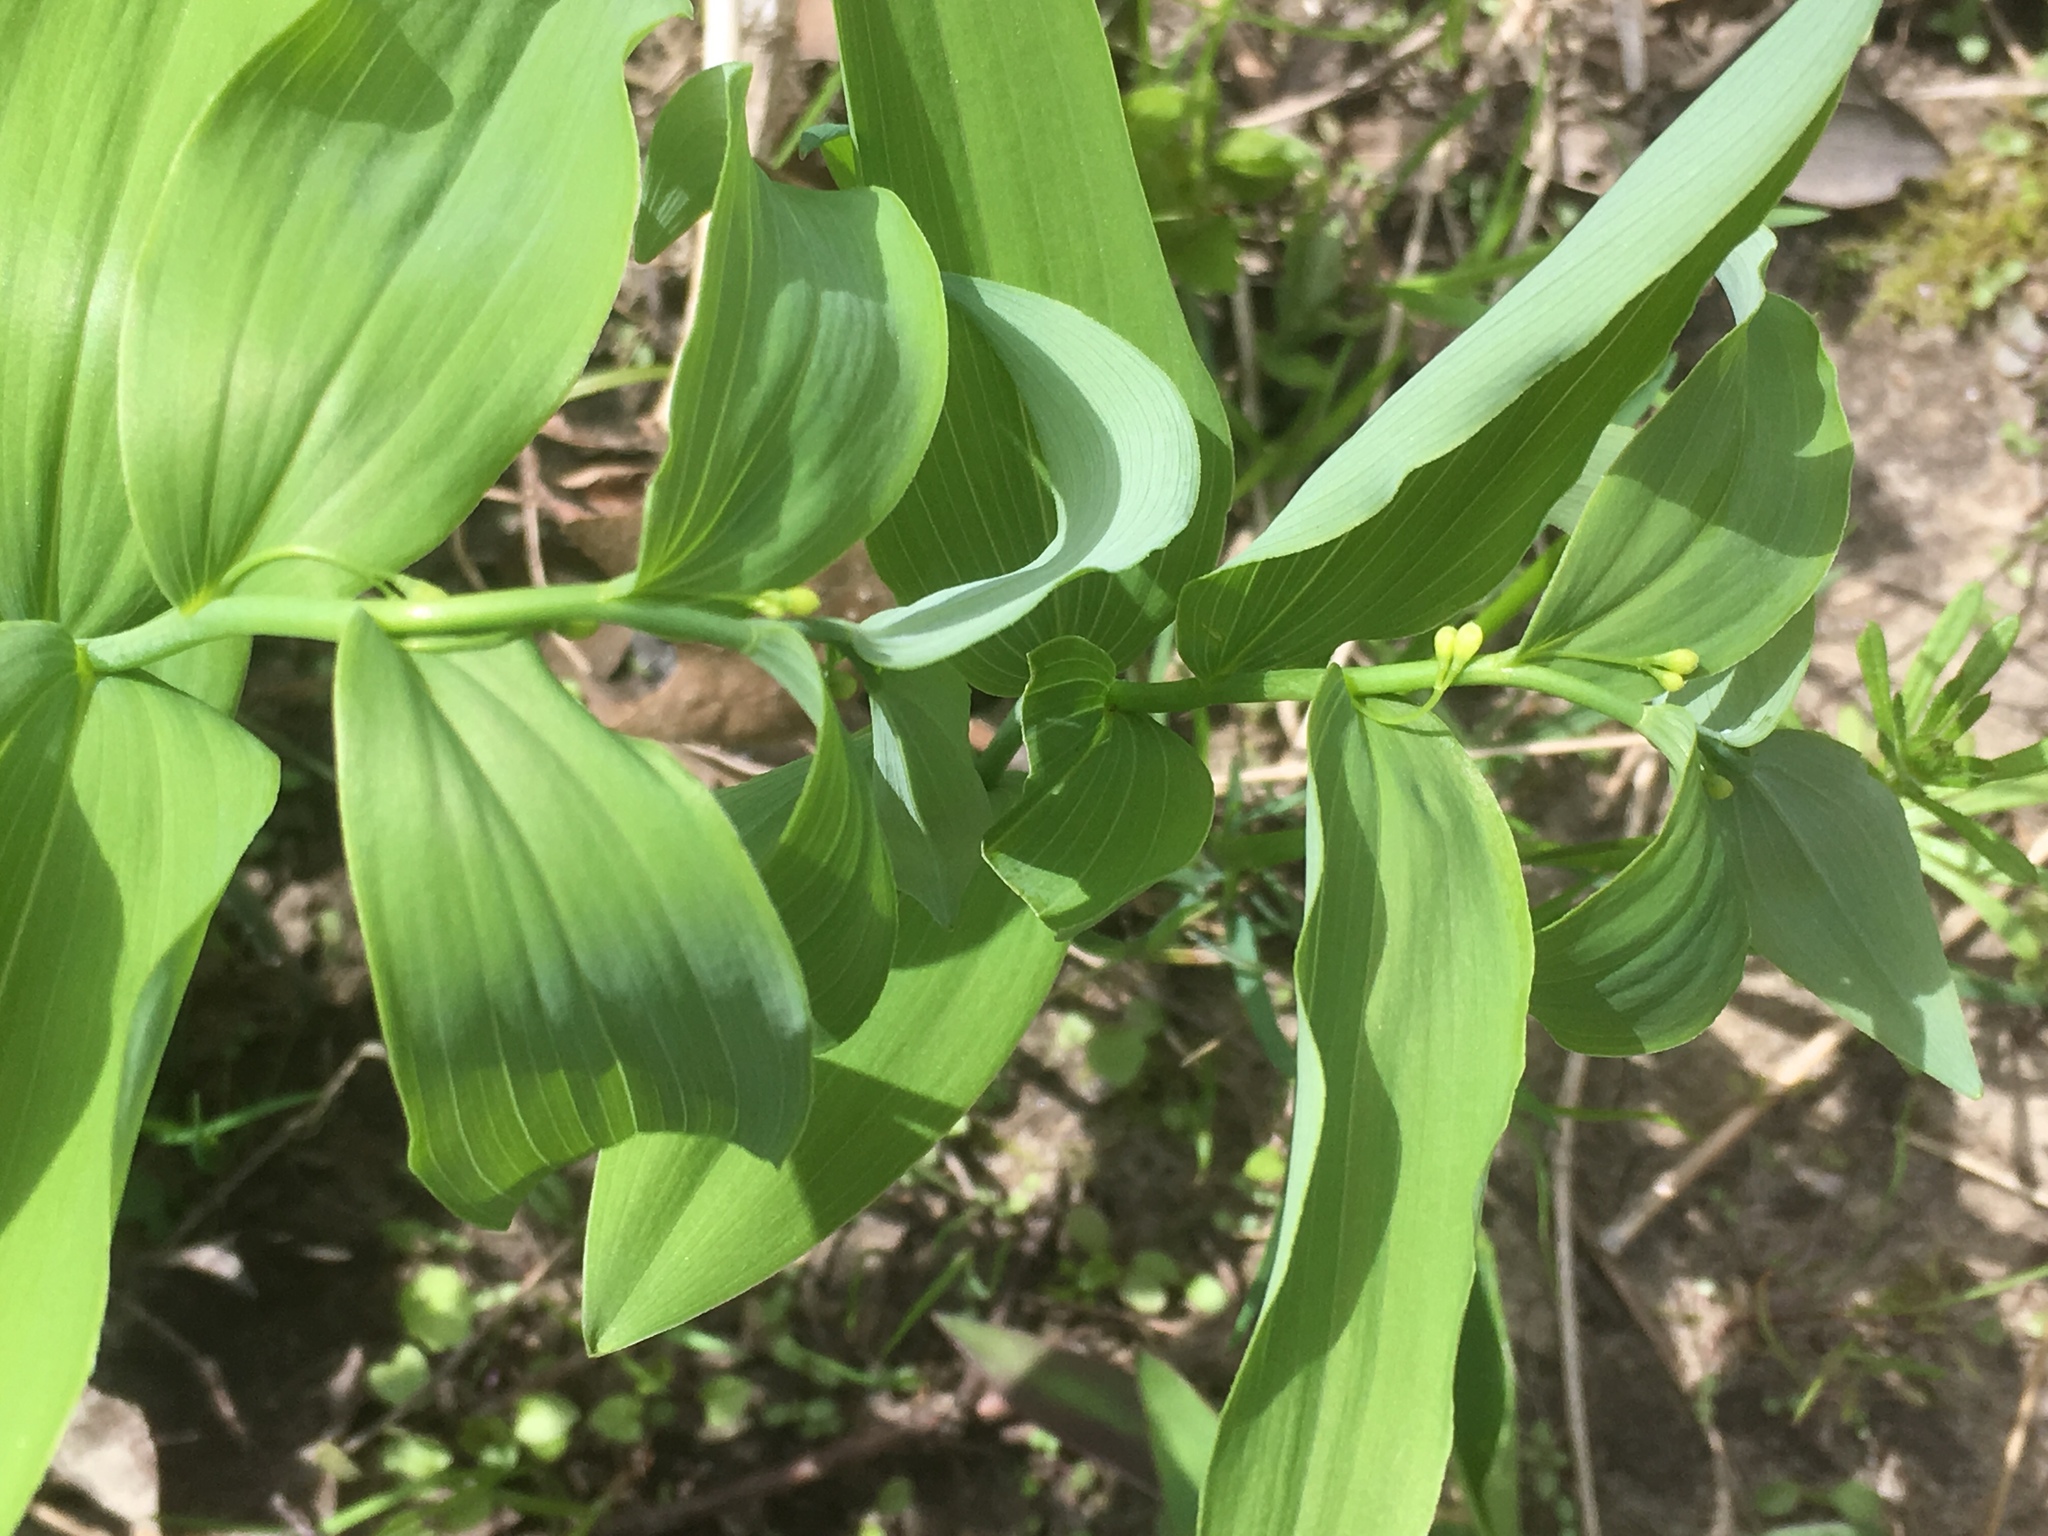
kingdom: Plantae
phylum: Tracheophyta
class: Liliopsida
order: Asparagales
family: Asparagaceae
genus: Polygonatum
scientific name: Polygonatum biflorum
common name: American solomon's-seal
